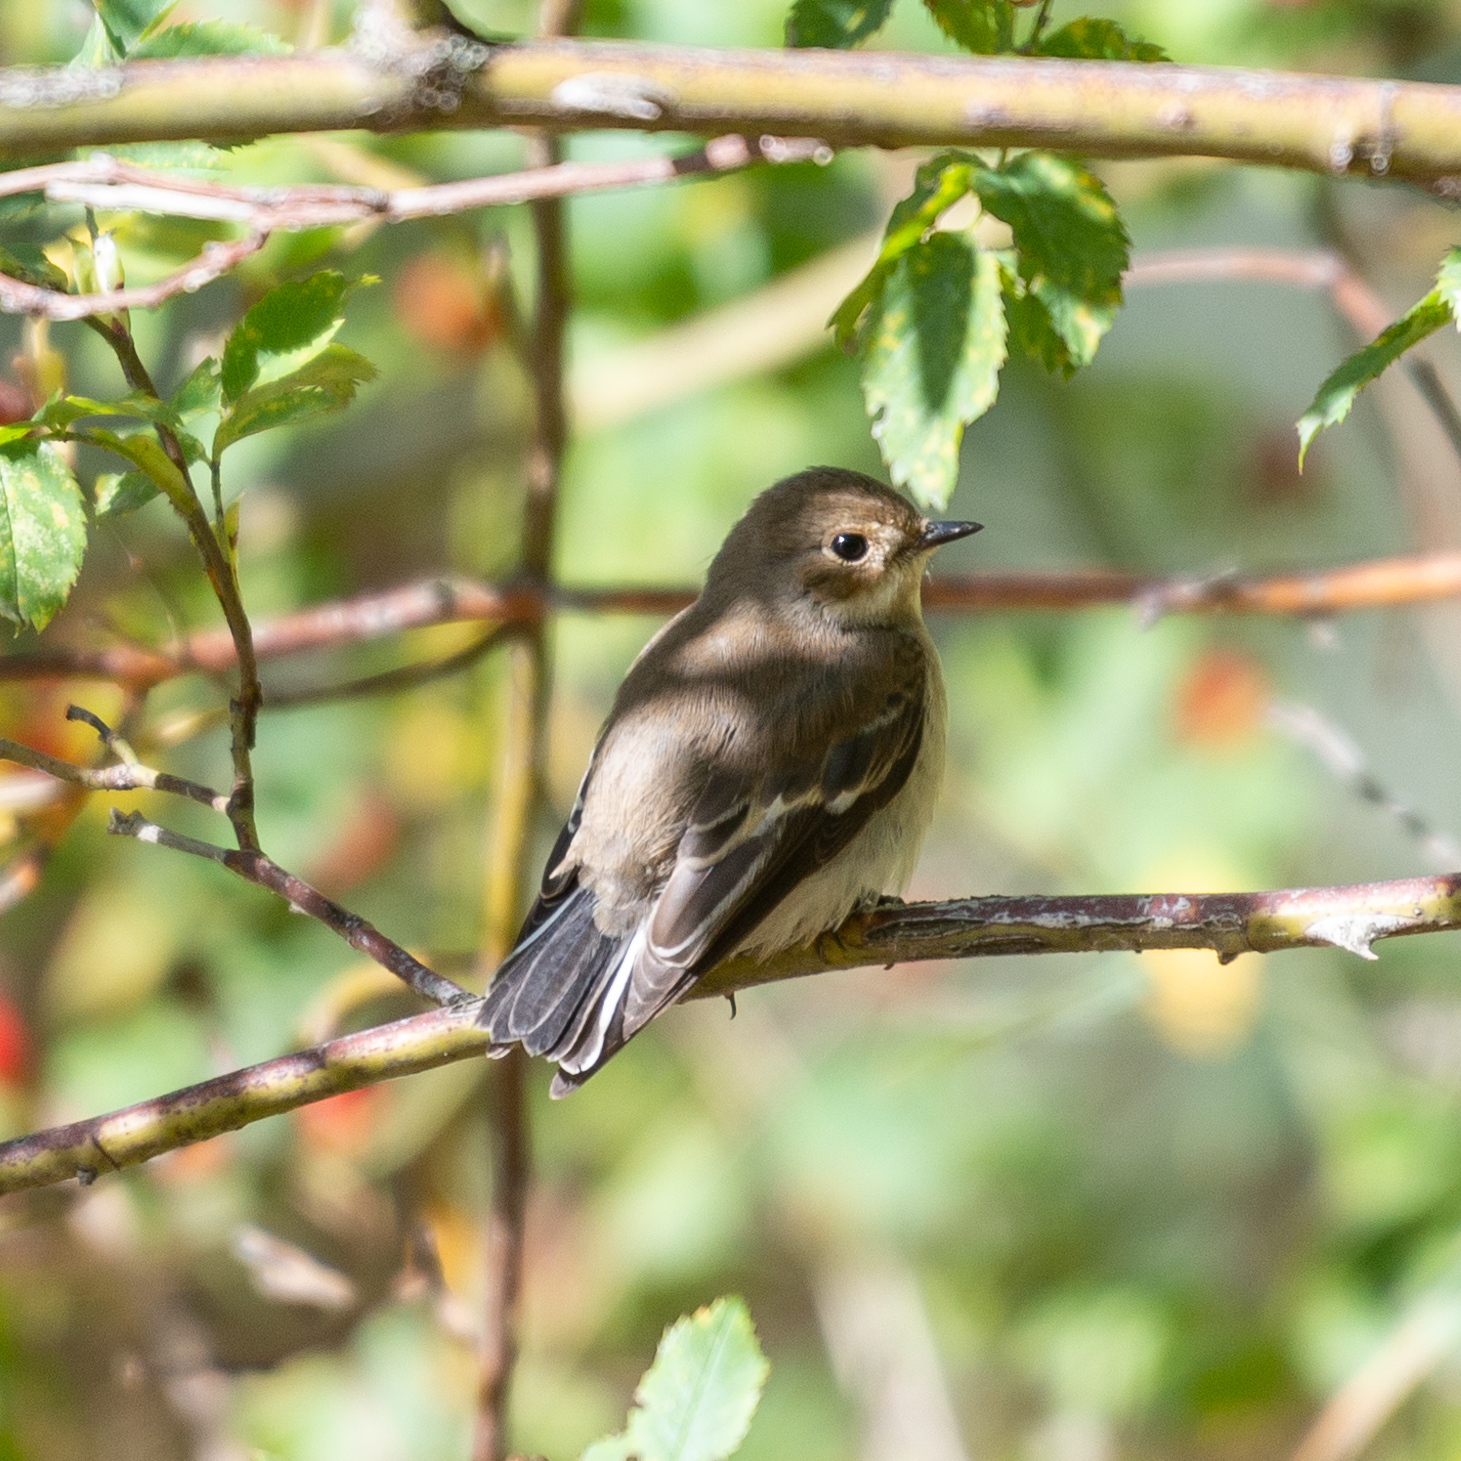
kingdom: Animalia
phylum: Chordata
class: Aves
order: Passeriformes
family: Muscicapidae
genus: Ficedula
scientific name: Ficedula hypoleuca
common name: European pied flycatcher
